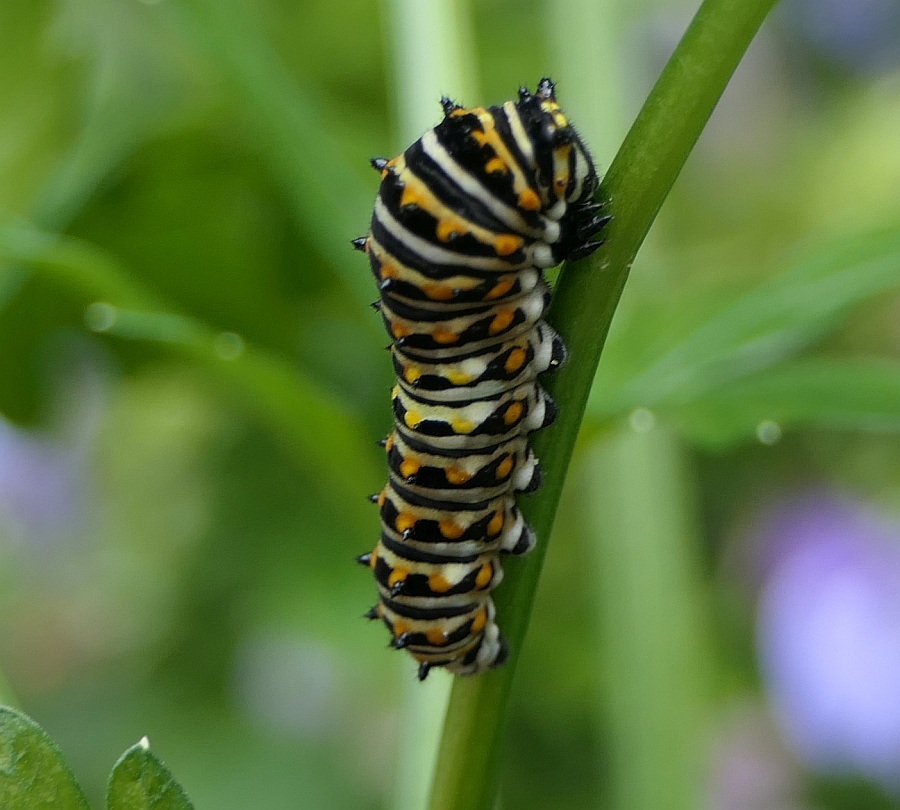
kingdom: Animalia
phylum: Arthropoda
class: Insecta
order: Lepidoptera
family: Papilionidae
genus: Papilio
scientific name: Papilio polyxenes
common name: Black swallowtail
